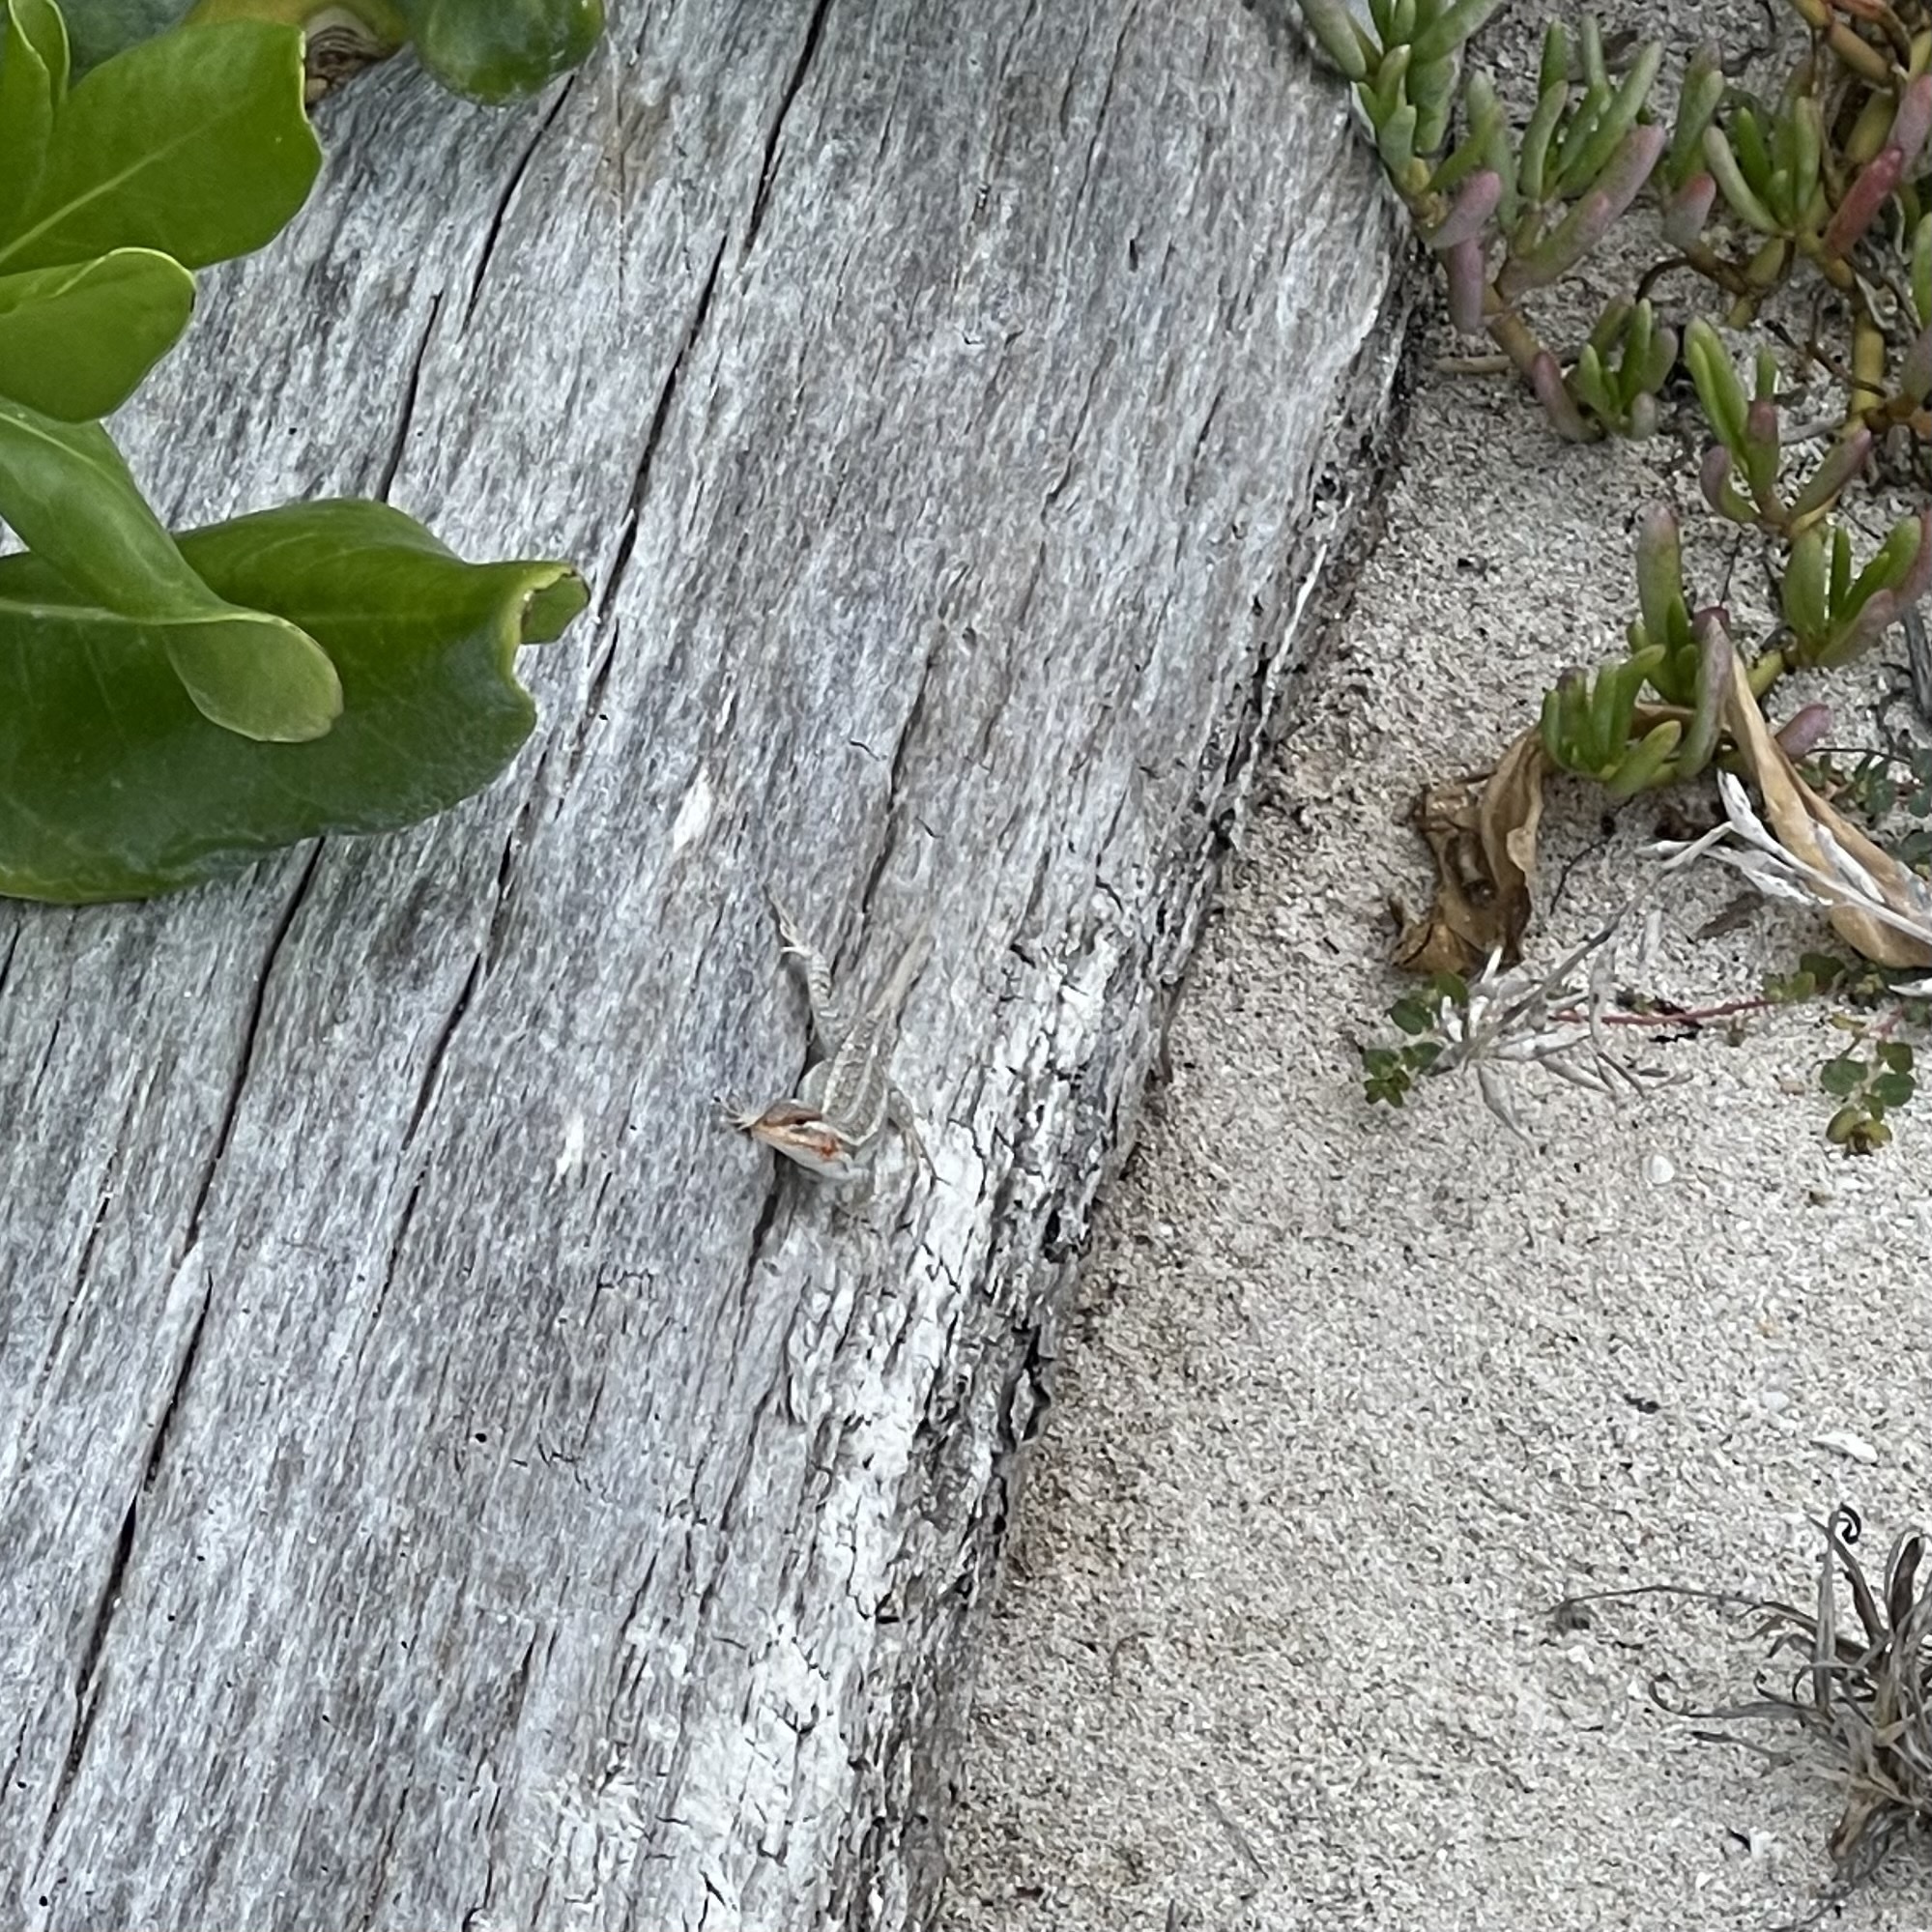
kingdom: Animalia
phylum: Chordata
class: Squamata
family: Phrynosomatidae
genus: Sceloporus
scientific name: Sceloporus cozumelae
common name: Cozumel spiny lizard
